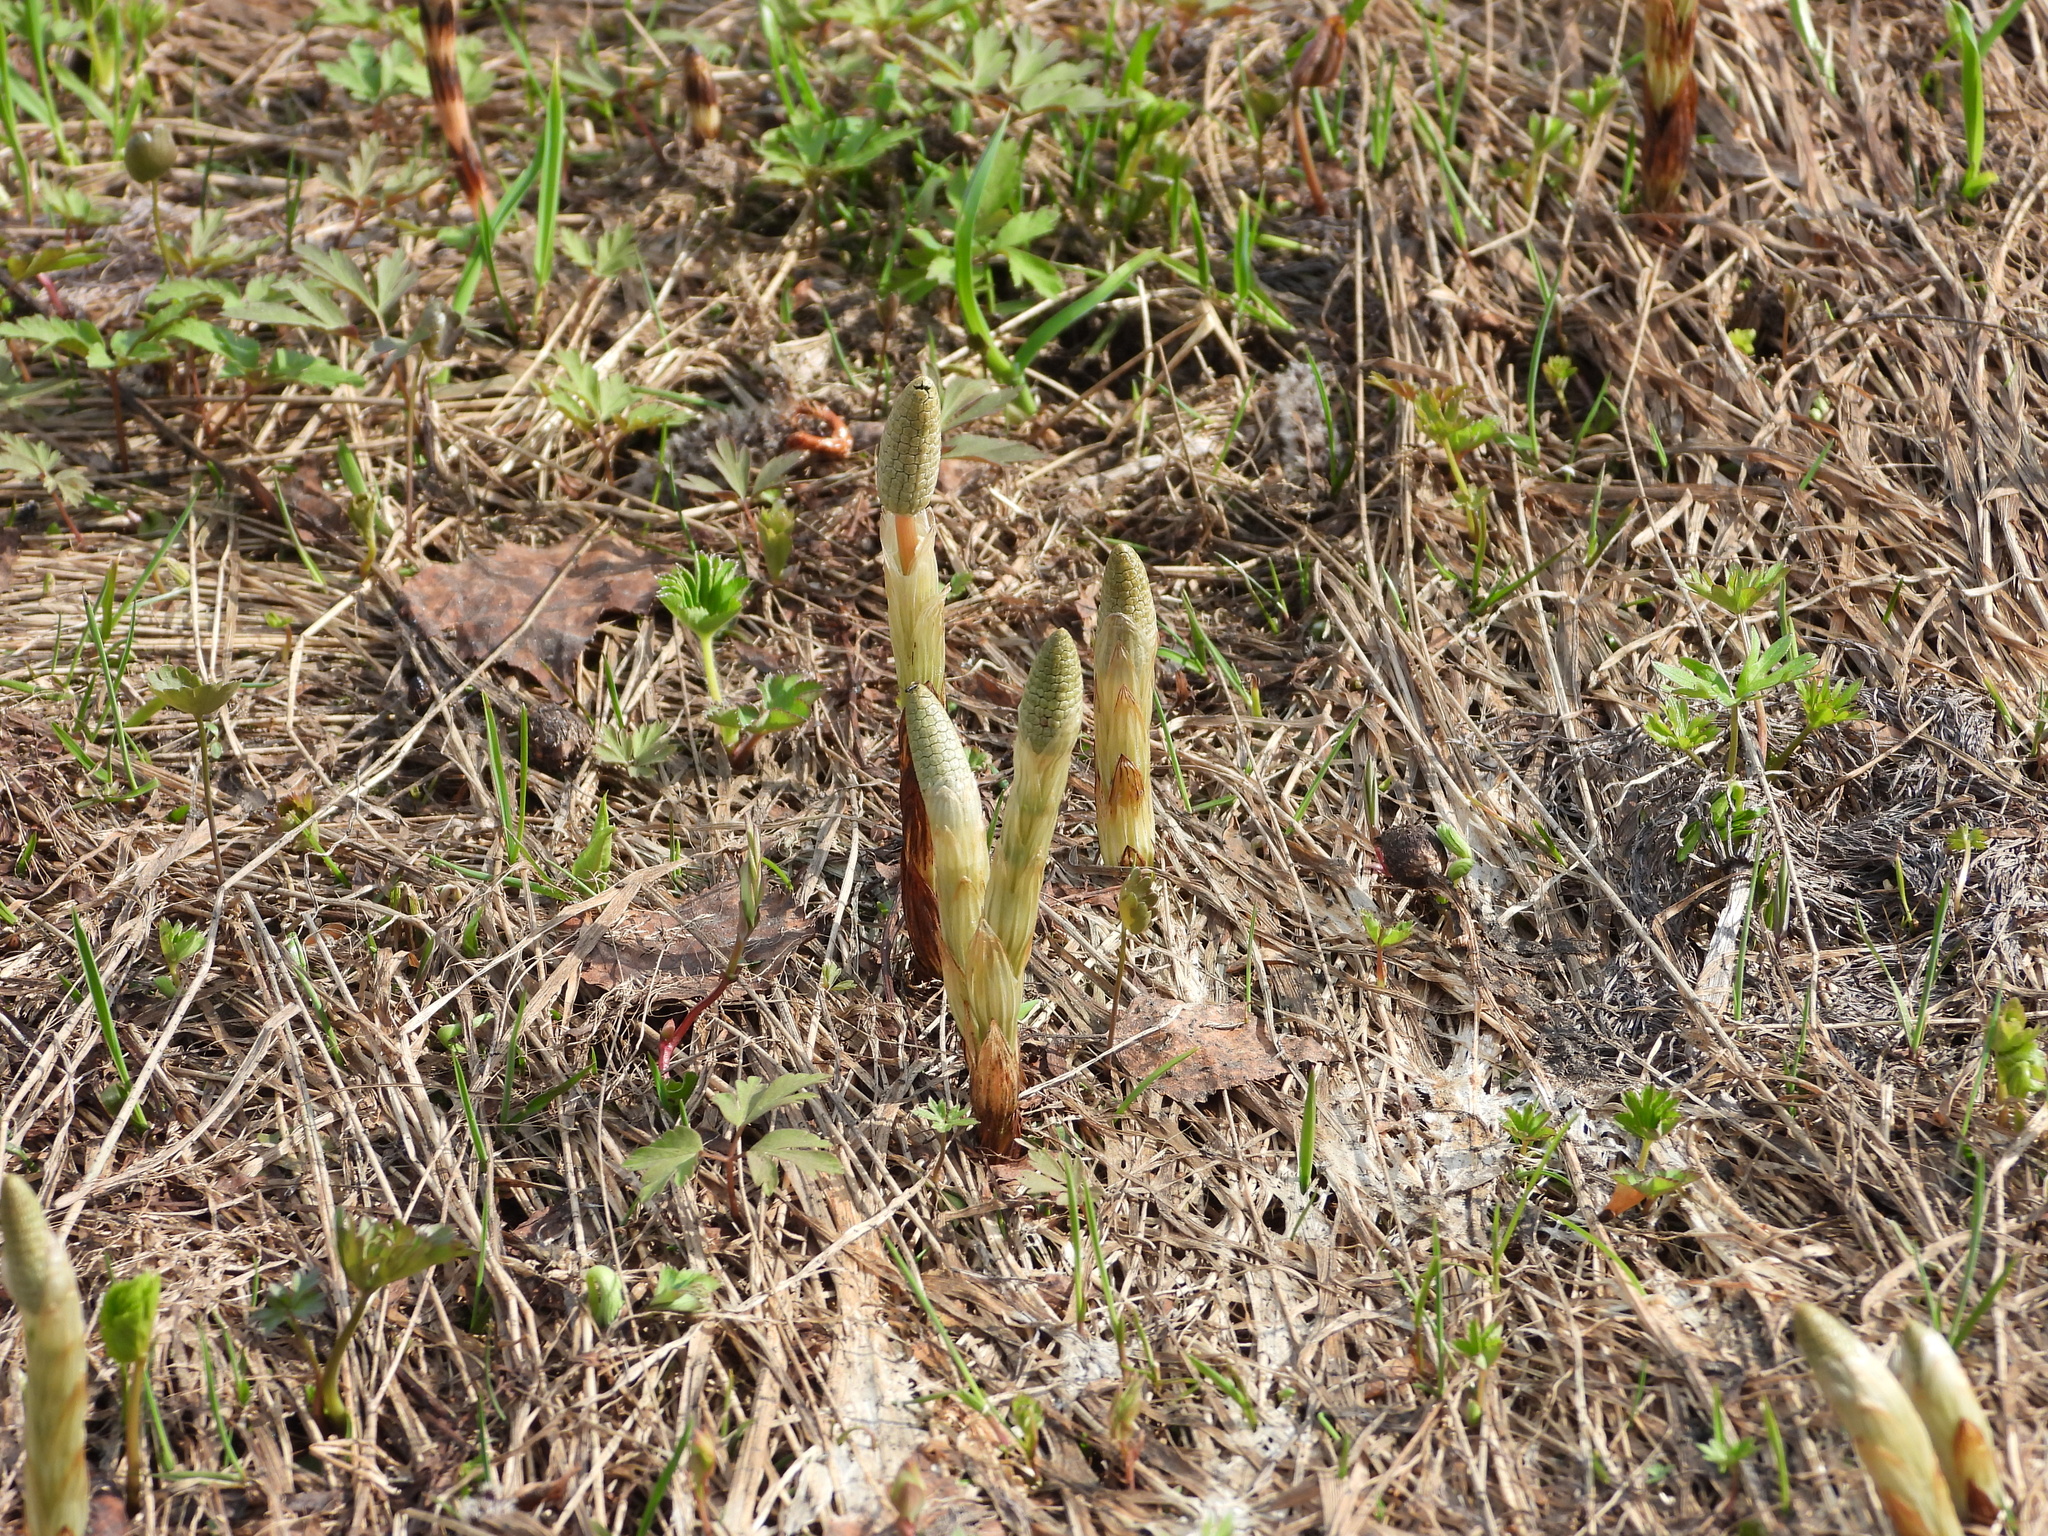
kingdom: Plantae
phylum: Tracheophyta
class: Polypodiopsida
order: Equisetales
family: Equisetaceae
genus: Equisetum
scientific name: Equisetum sylvaticum
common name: Wood horsetail
